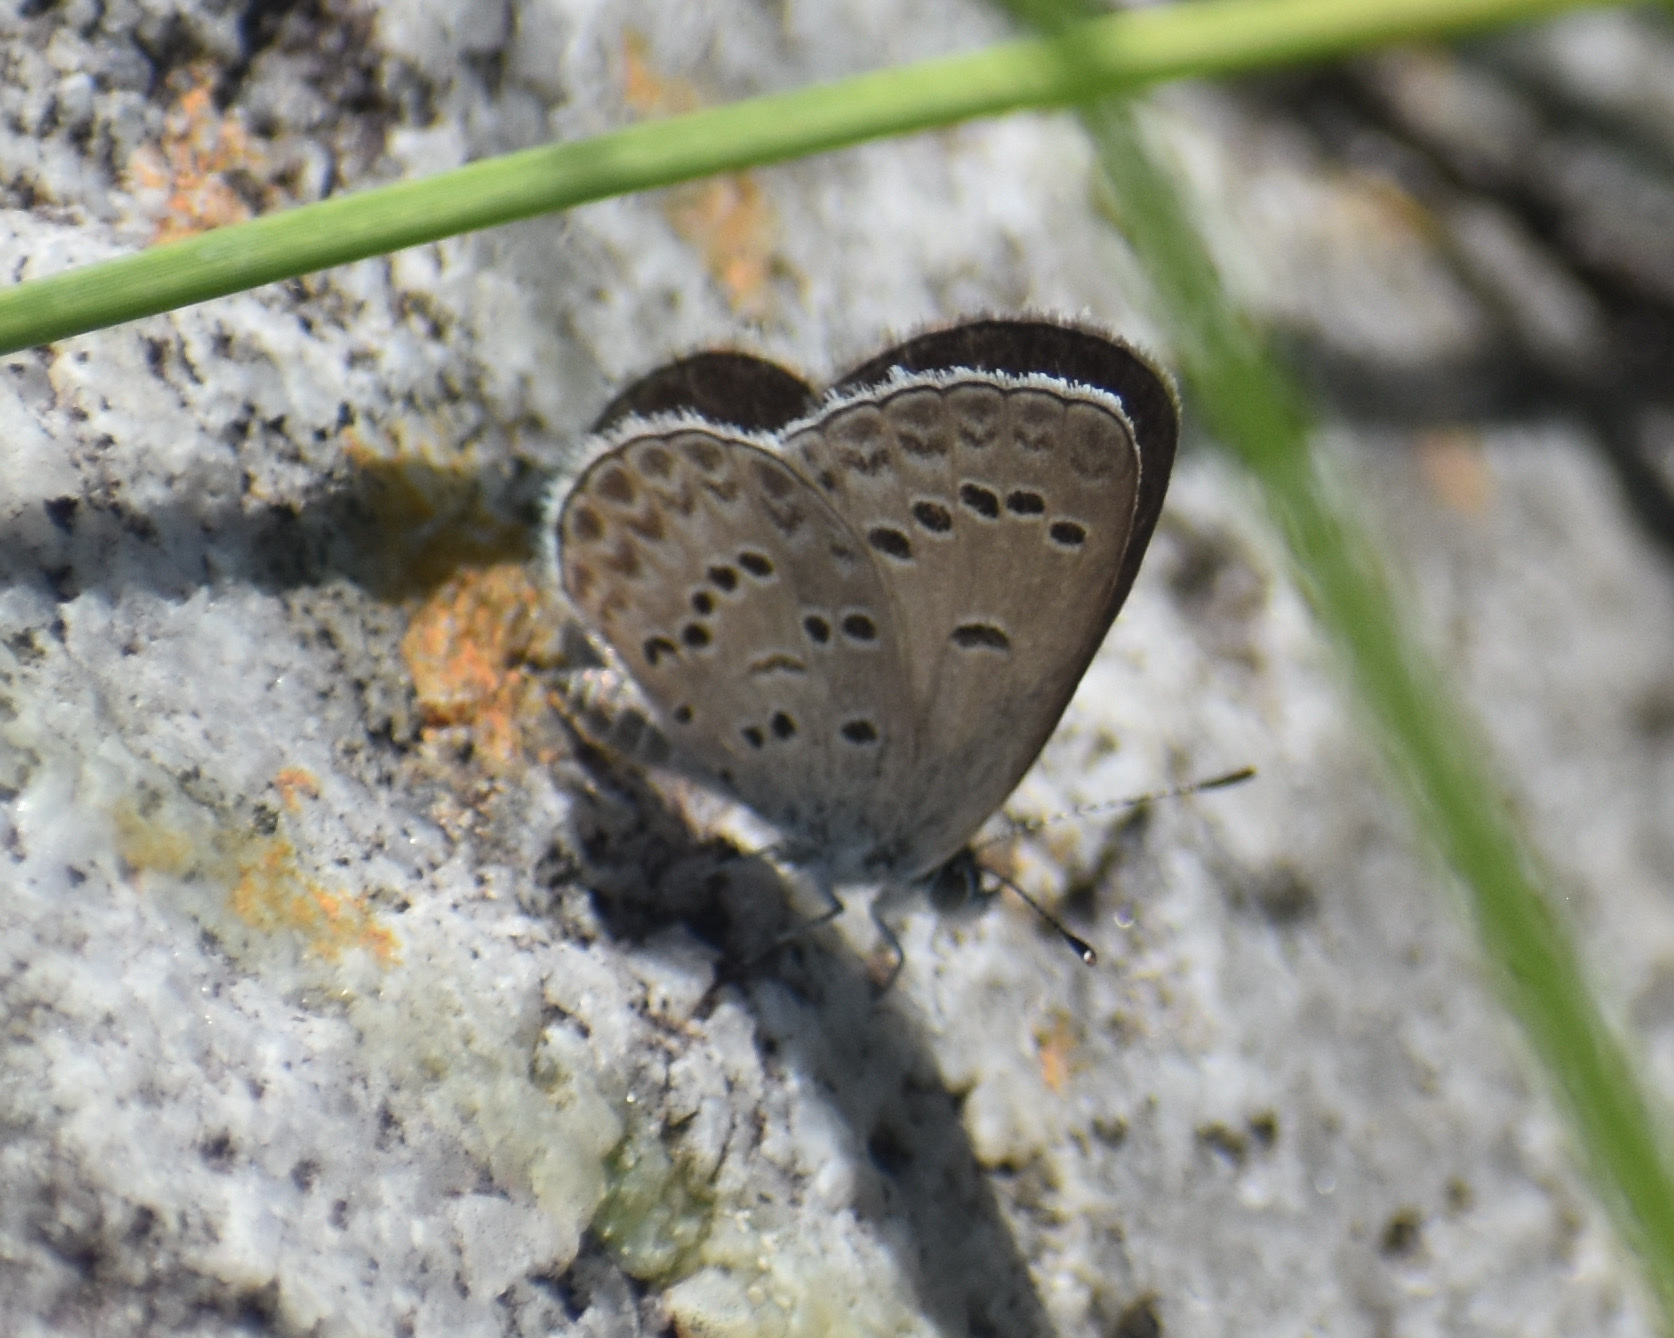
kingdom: Animalia
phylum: Arthropoda
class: Insecta
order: Lepidoptera
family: Lycaenidae
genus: Zizina
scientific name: Zizina otis
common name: Lesser grass blue
